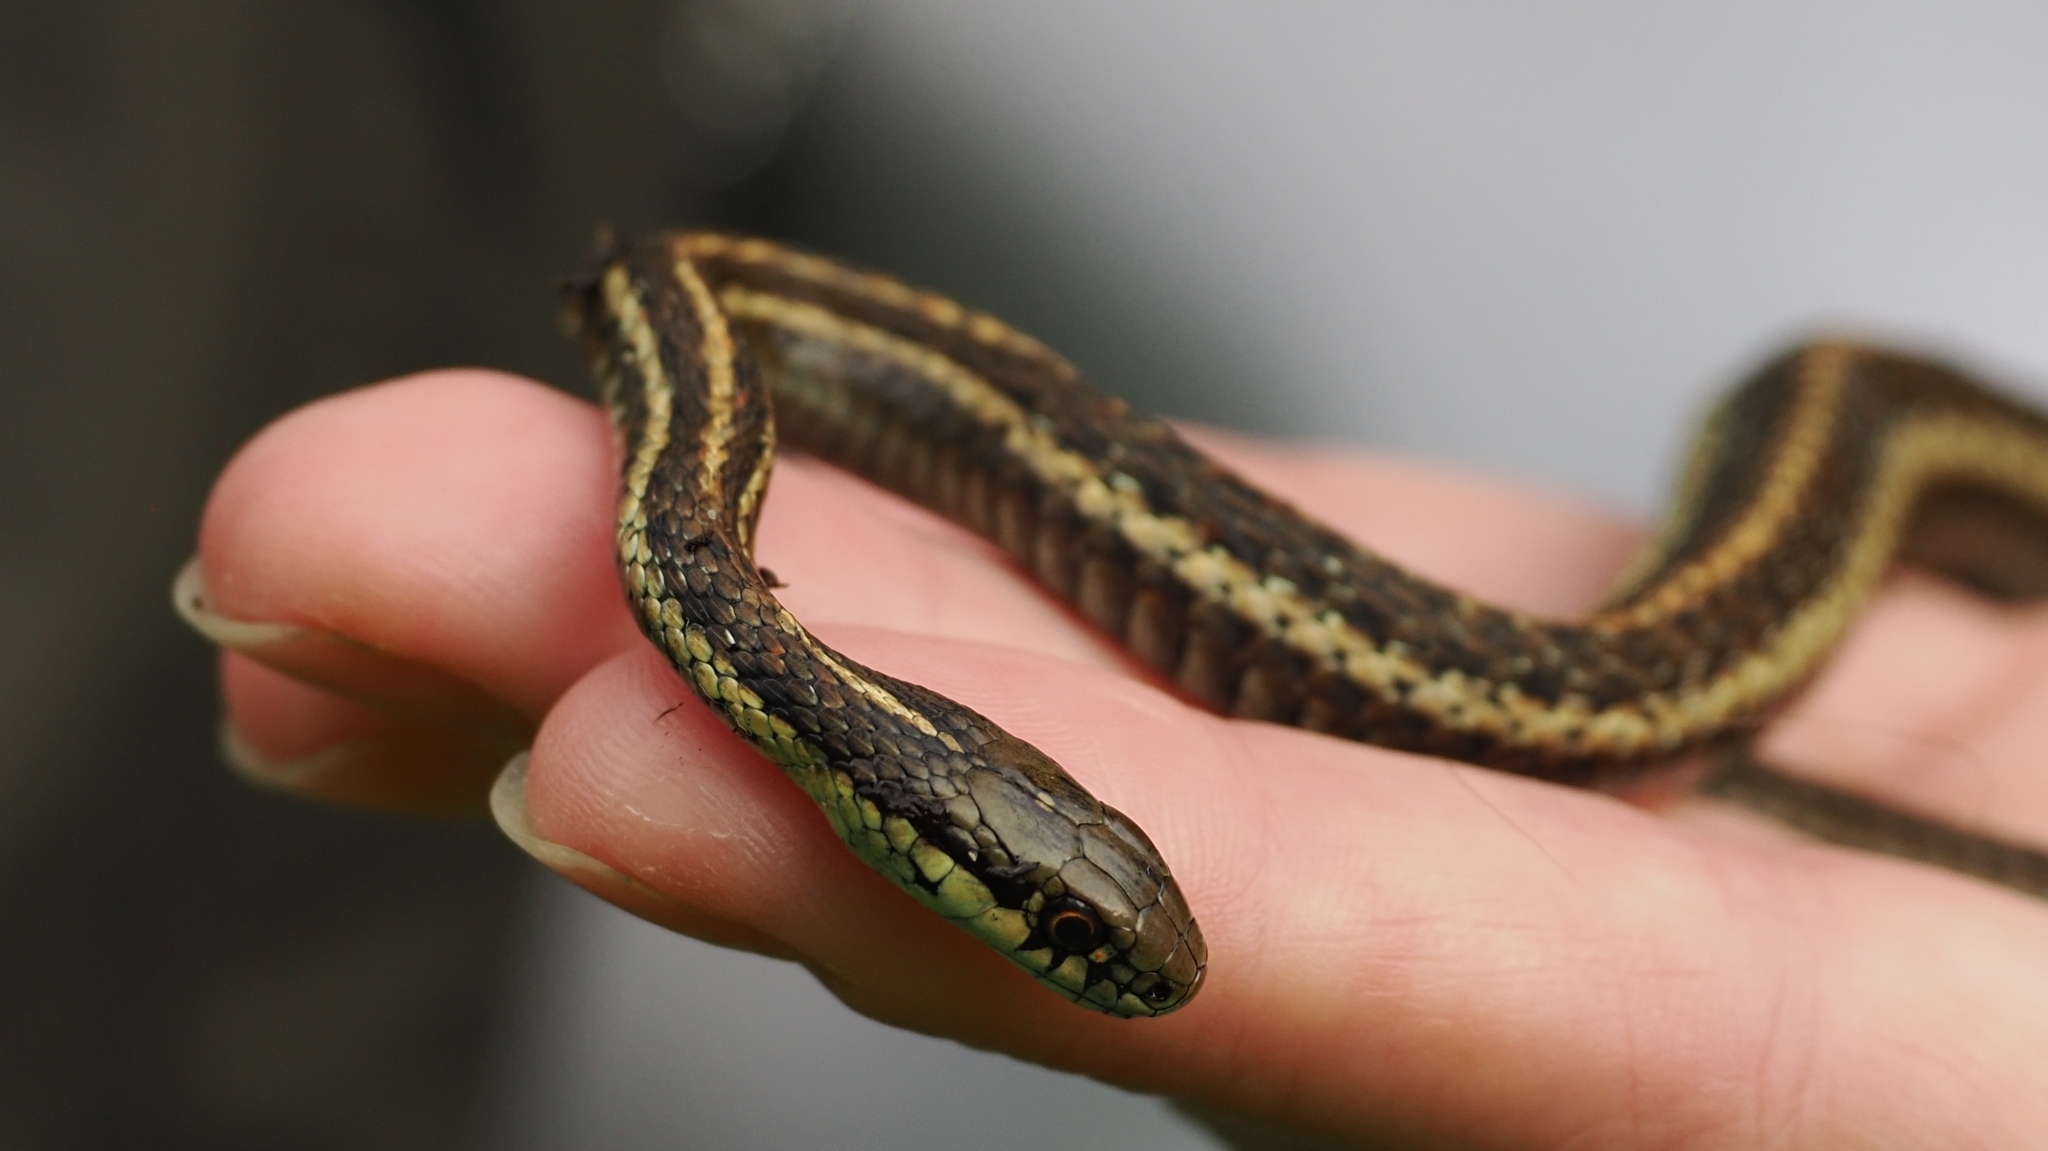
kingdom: Animalia
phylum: Chordata
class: Squamata
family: Colubridae
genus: Thamnophis
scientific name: Thamnophis ordinoides
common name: Northwestern garter snake
